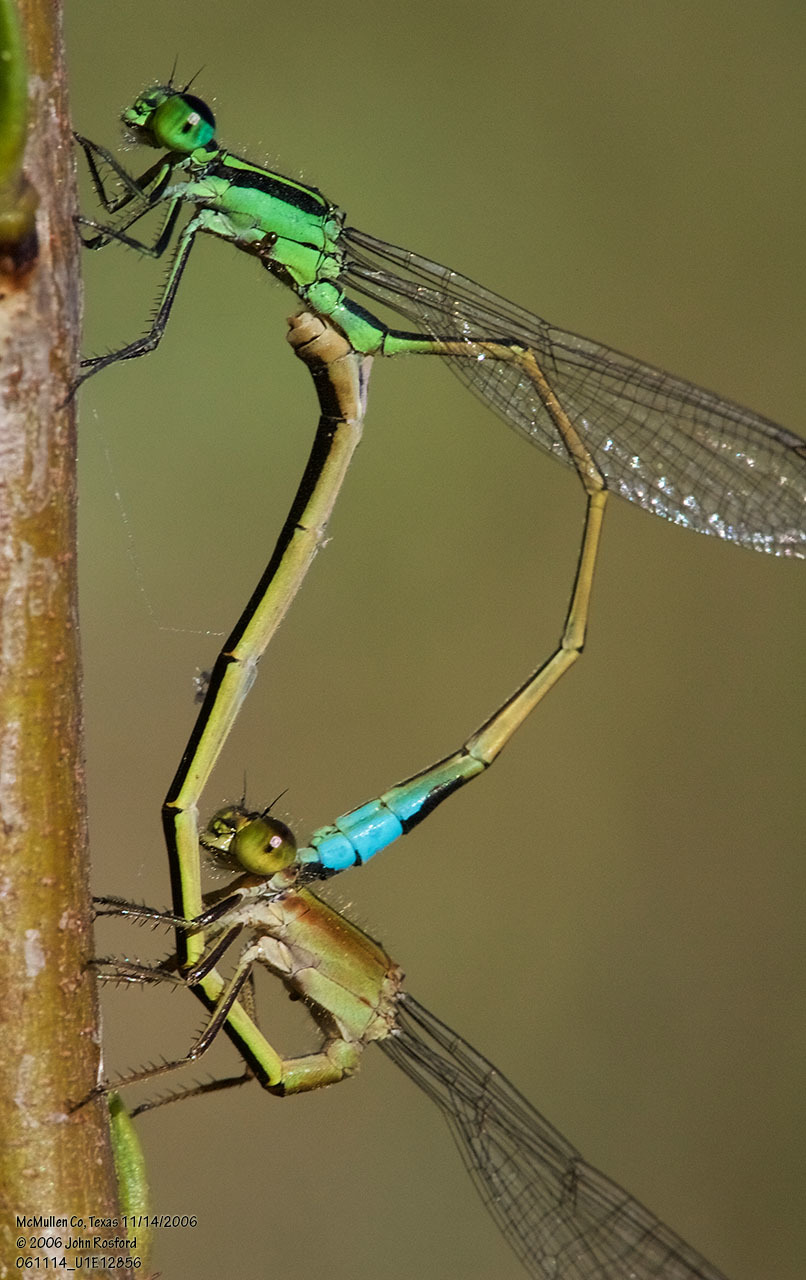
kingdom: Animalia
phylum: Arthropoda
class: Insecta
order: Odonata
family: Coenagrionidae
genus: Ischnura
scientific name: Ischnura ramburii
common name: Rambur's forktail
